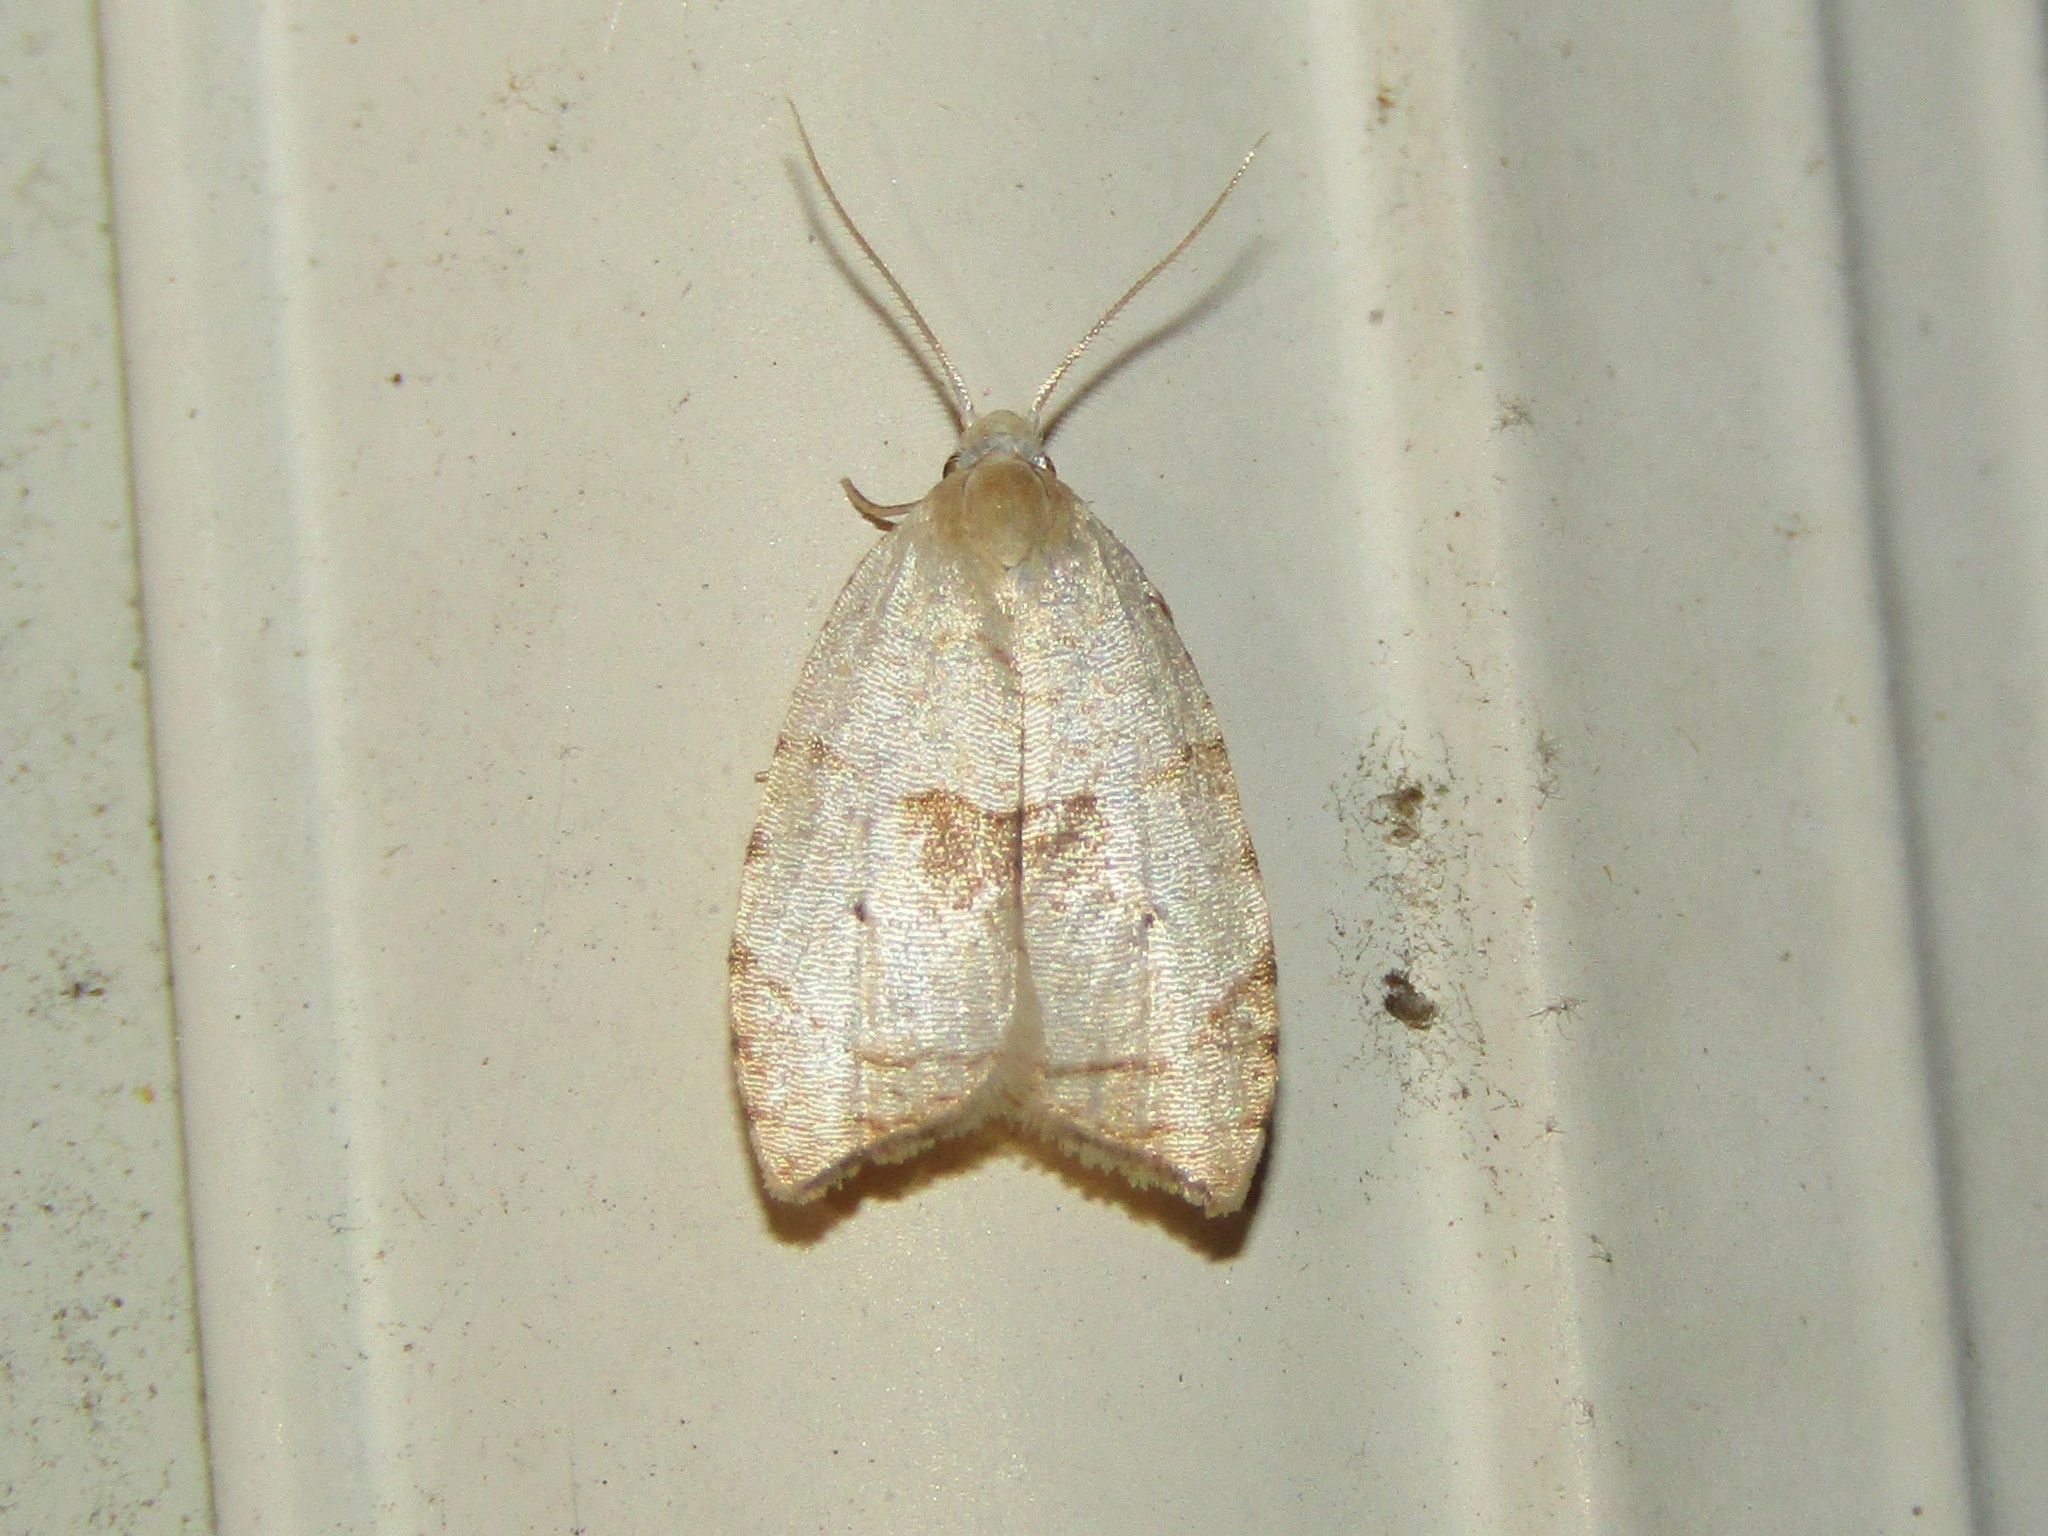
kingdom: Animalia
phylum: Arthropoda
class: Insecta
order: Lepidoptera
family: Tortricidae
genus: Coelostathma
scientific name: Coelostathma discopunctana
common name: Batman moth
